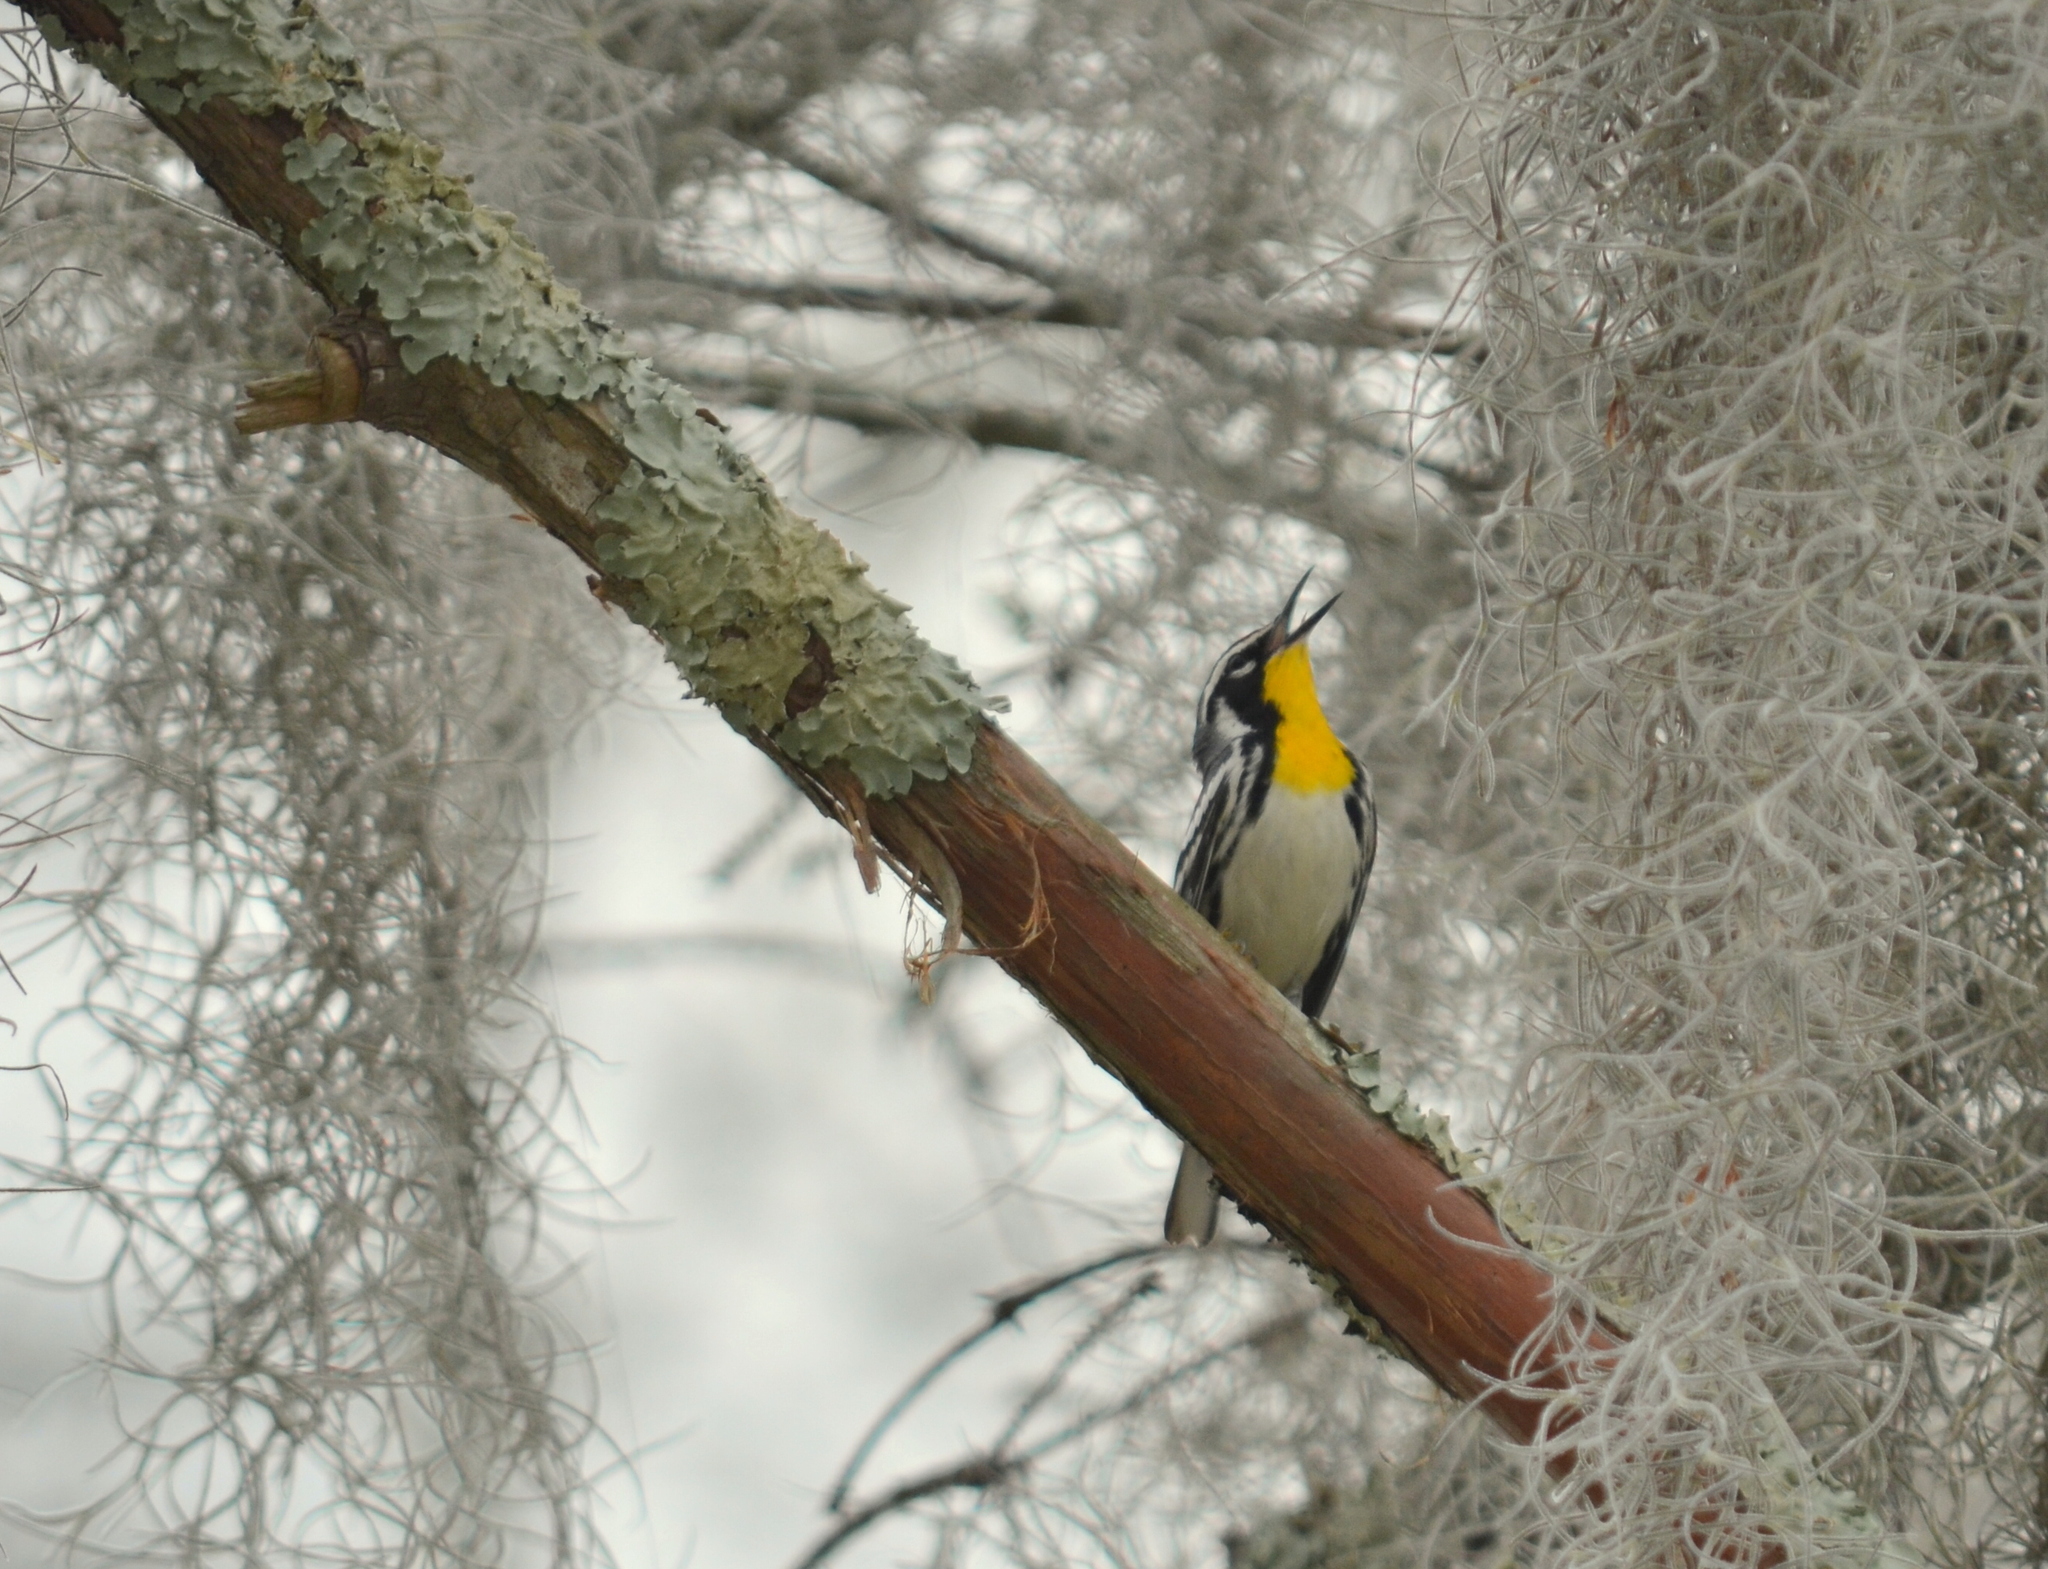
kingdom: Animalia
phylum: Chordata
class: Aves
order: Passeriformes
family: Parulidae
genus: Setophaga
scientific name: Setophaga dominica
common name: Yellow-throated warbler
